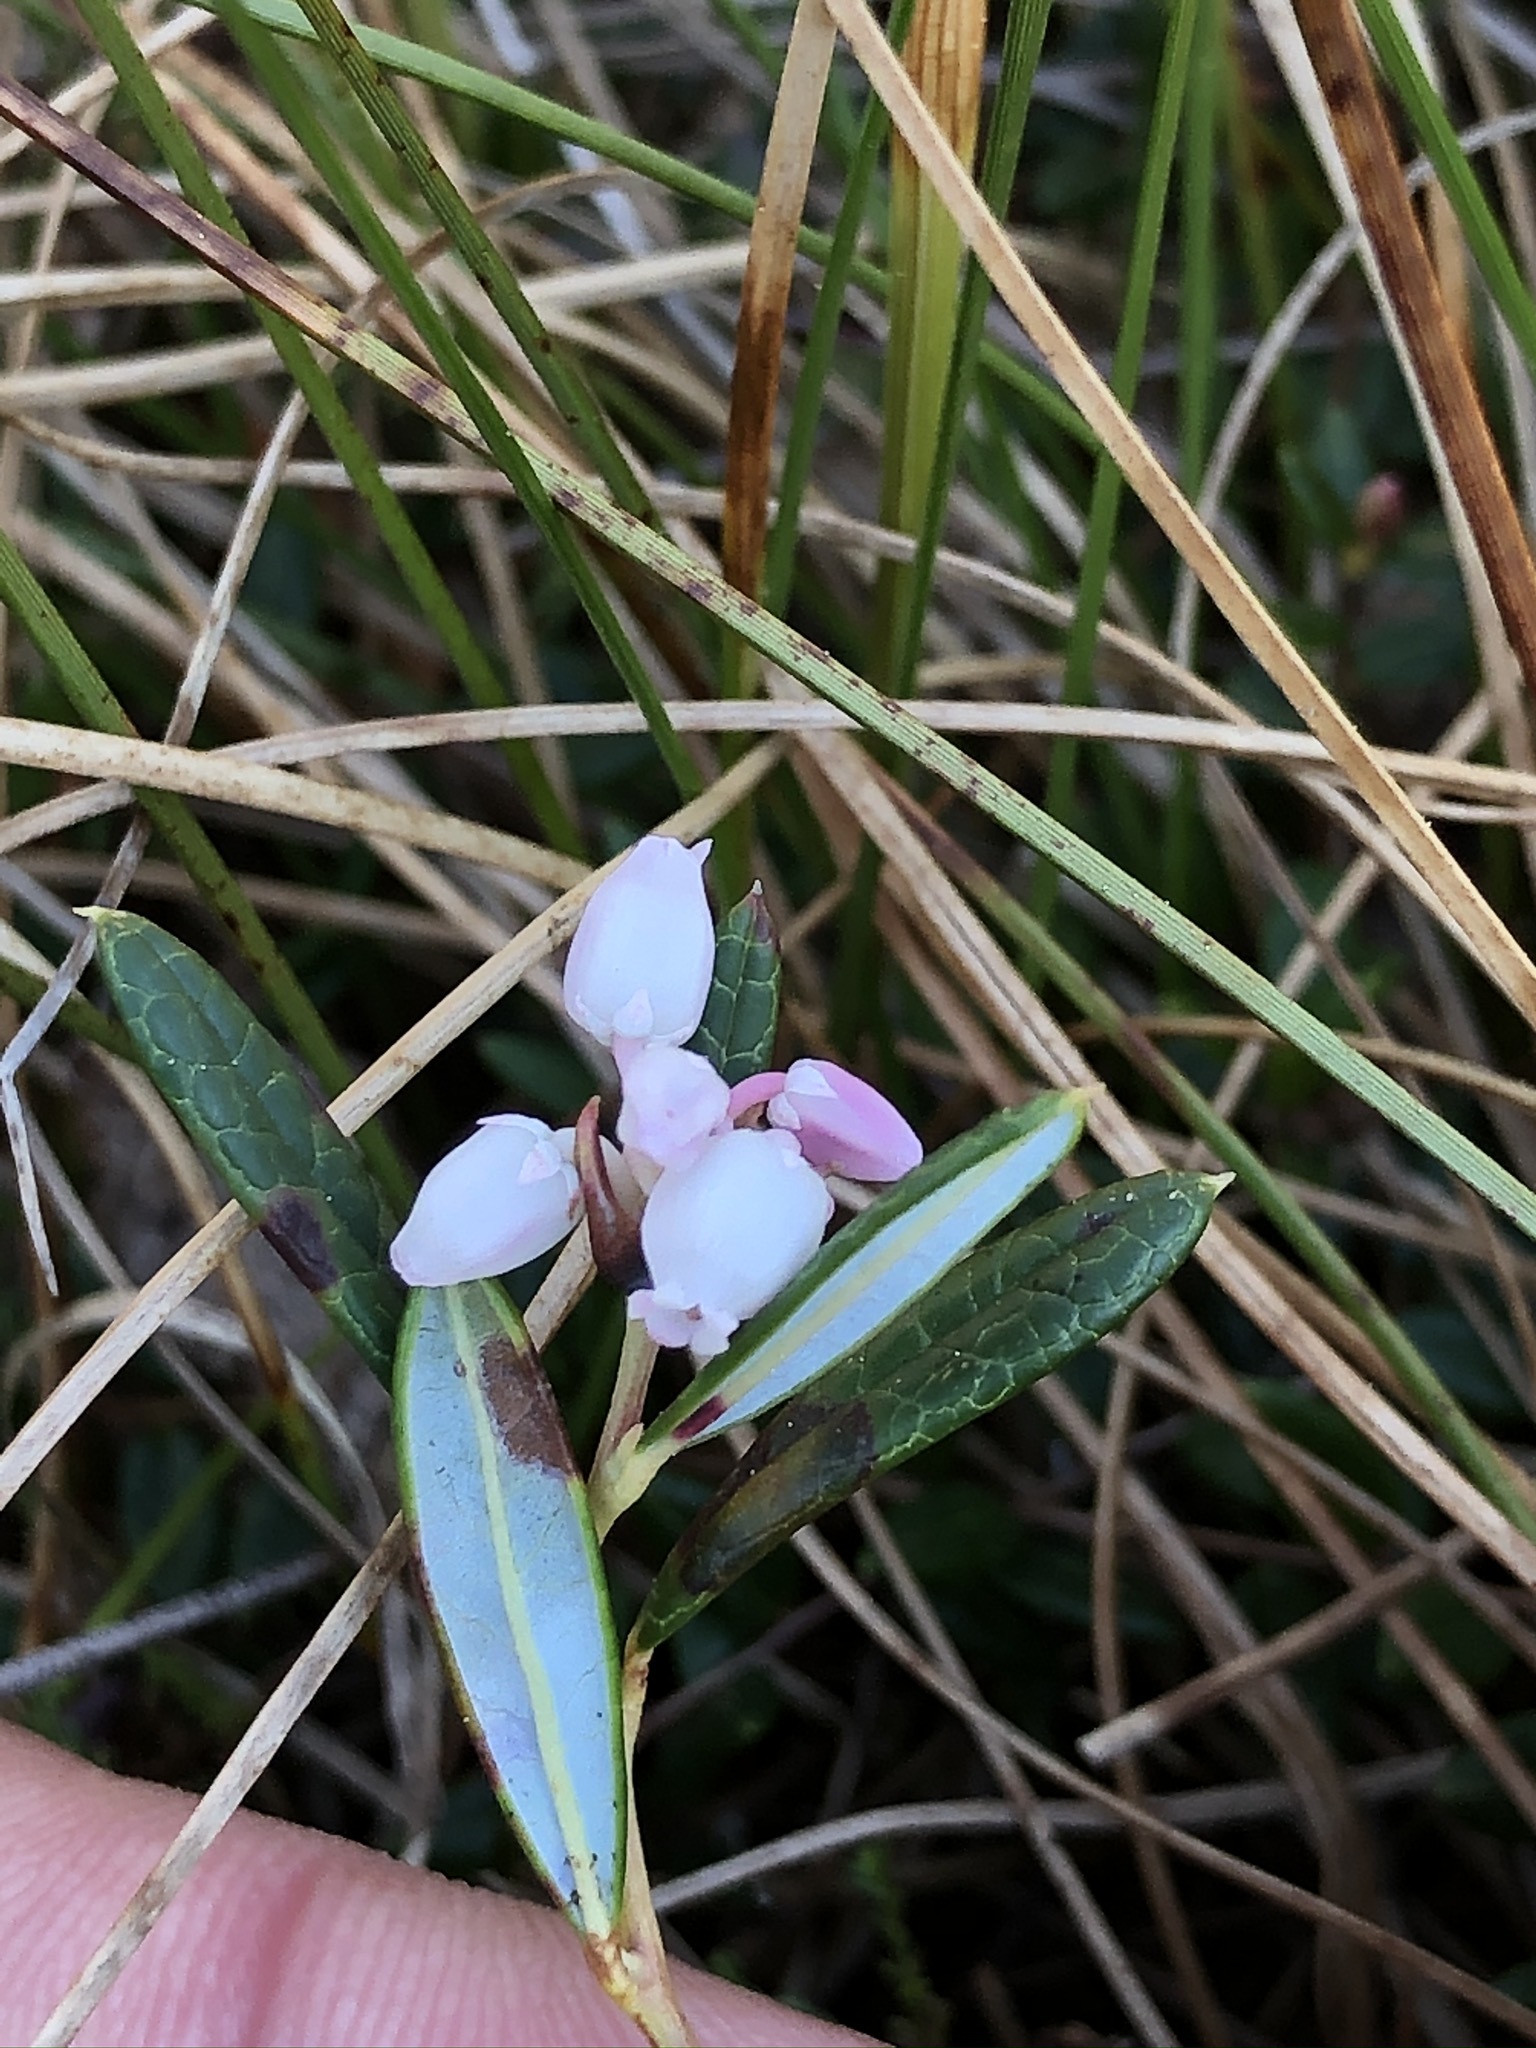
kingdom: Plantae
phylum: Tracheophyta
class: Magnoliopsida
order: Ericales
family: Ericaceae
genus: Andromeda
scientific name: Andromeda polifolia
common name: Bog-rosemary
